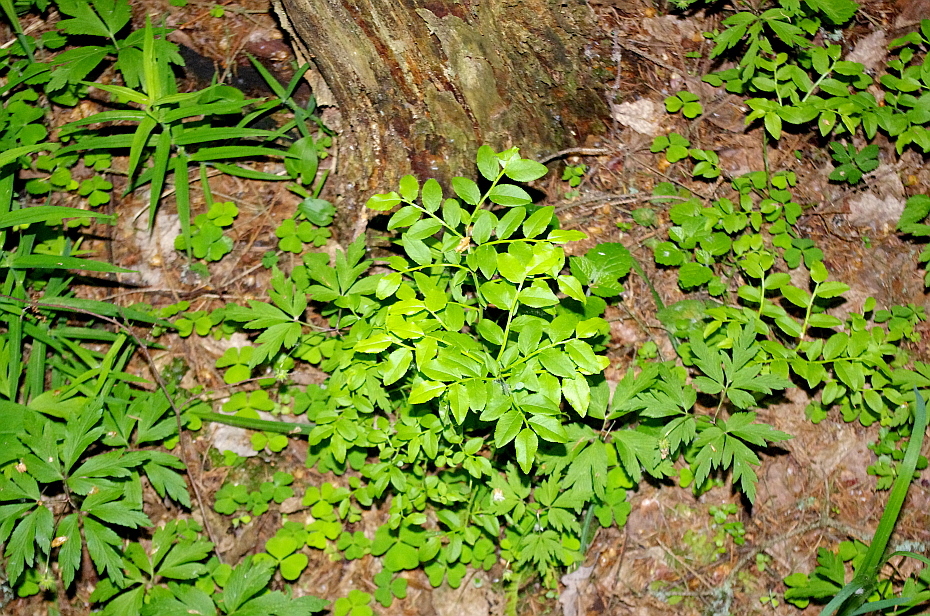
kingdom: Plantae
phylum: Tracheophyta
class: Magnoliopsida
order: Ericales
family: Ericaceae
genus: Vaccinium
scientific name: Vaccinium myrtillus
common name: Bilberry
